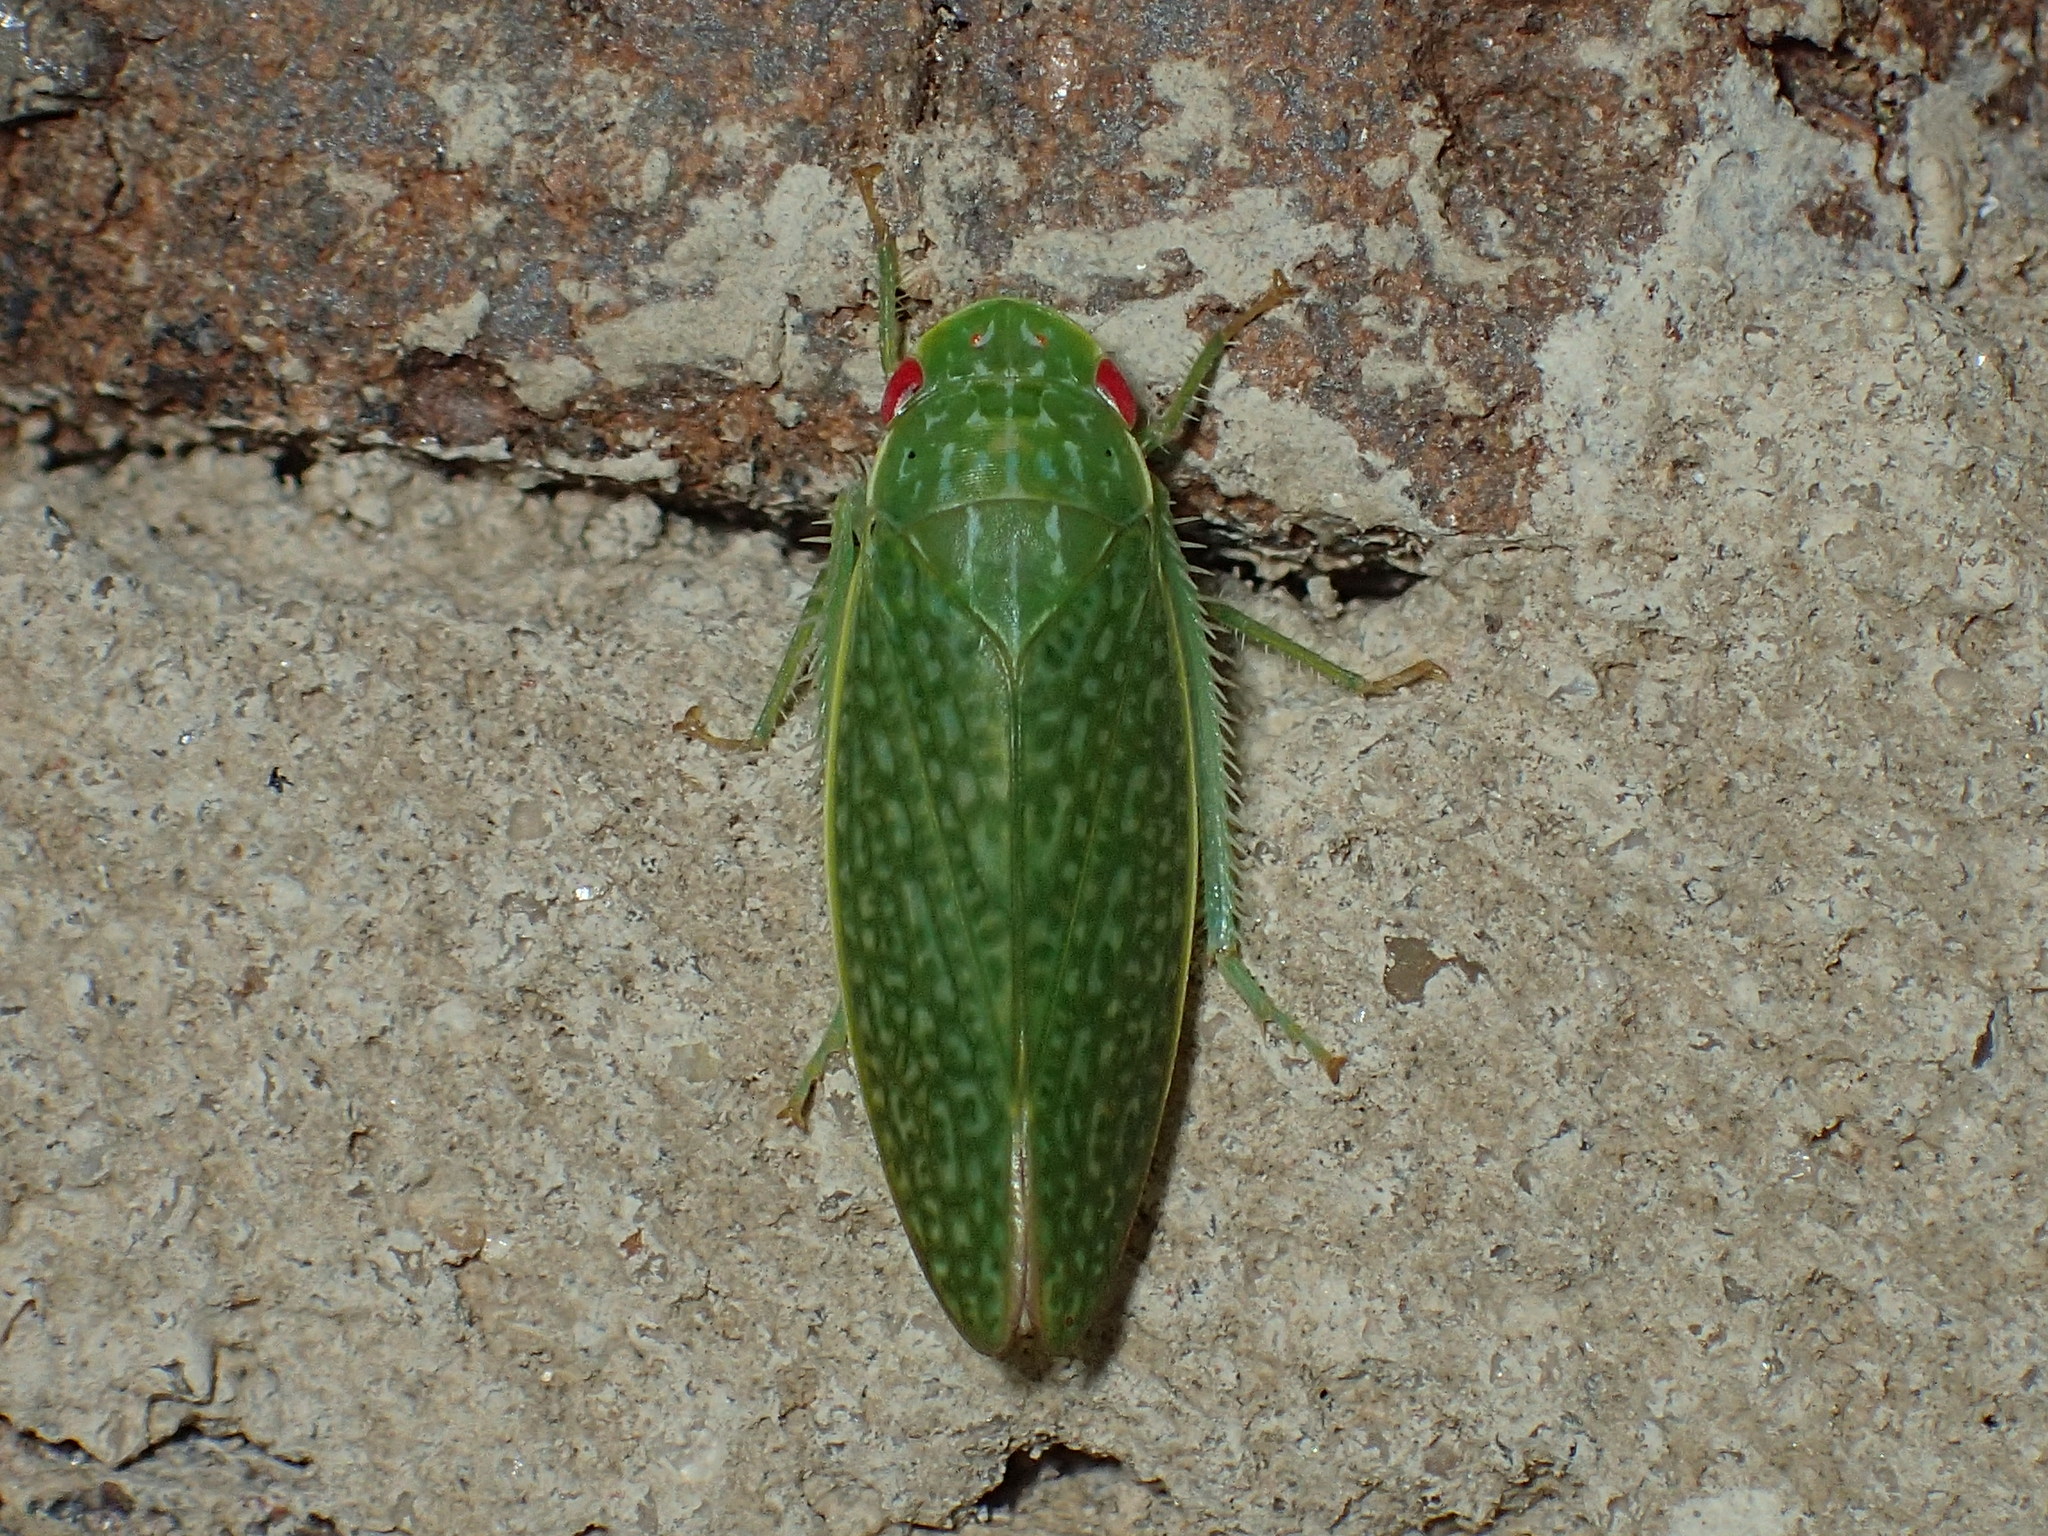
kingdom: Animalia
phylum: Arthropoda
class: Insecta
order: Hemiptera
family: Cicadellidae
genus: Rugosana
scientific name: Rugosana querci
